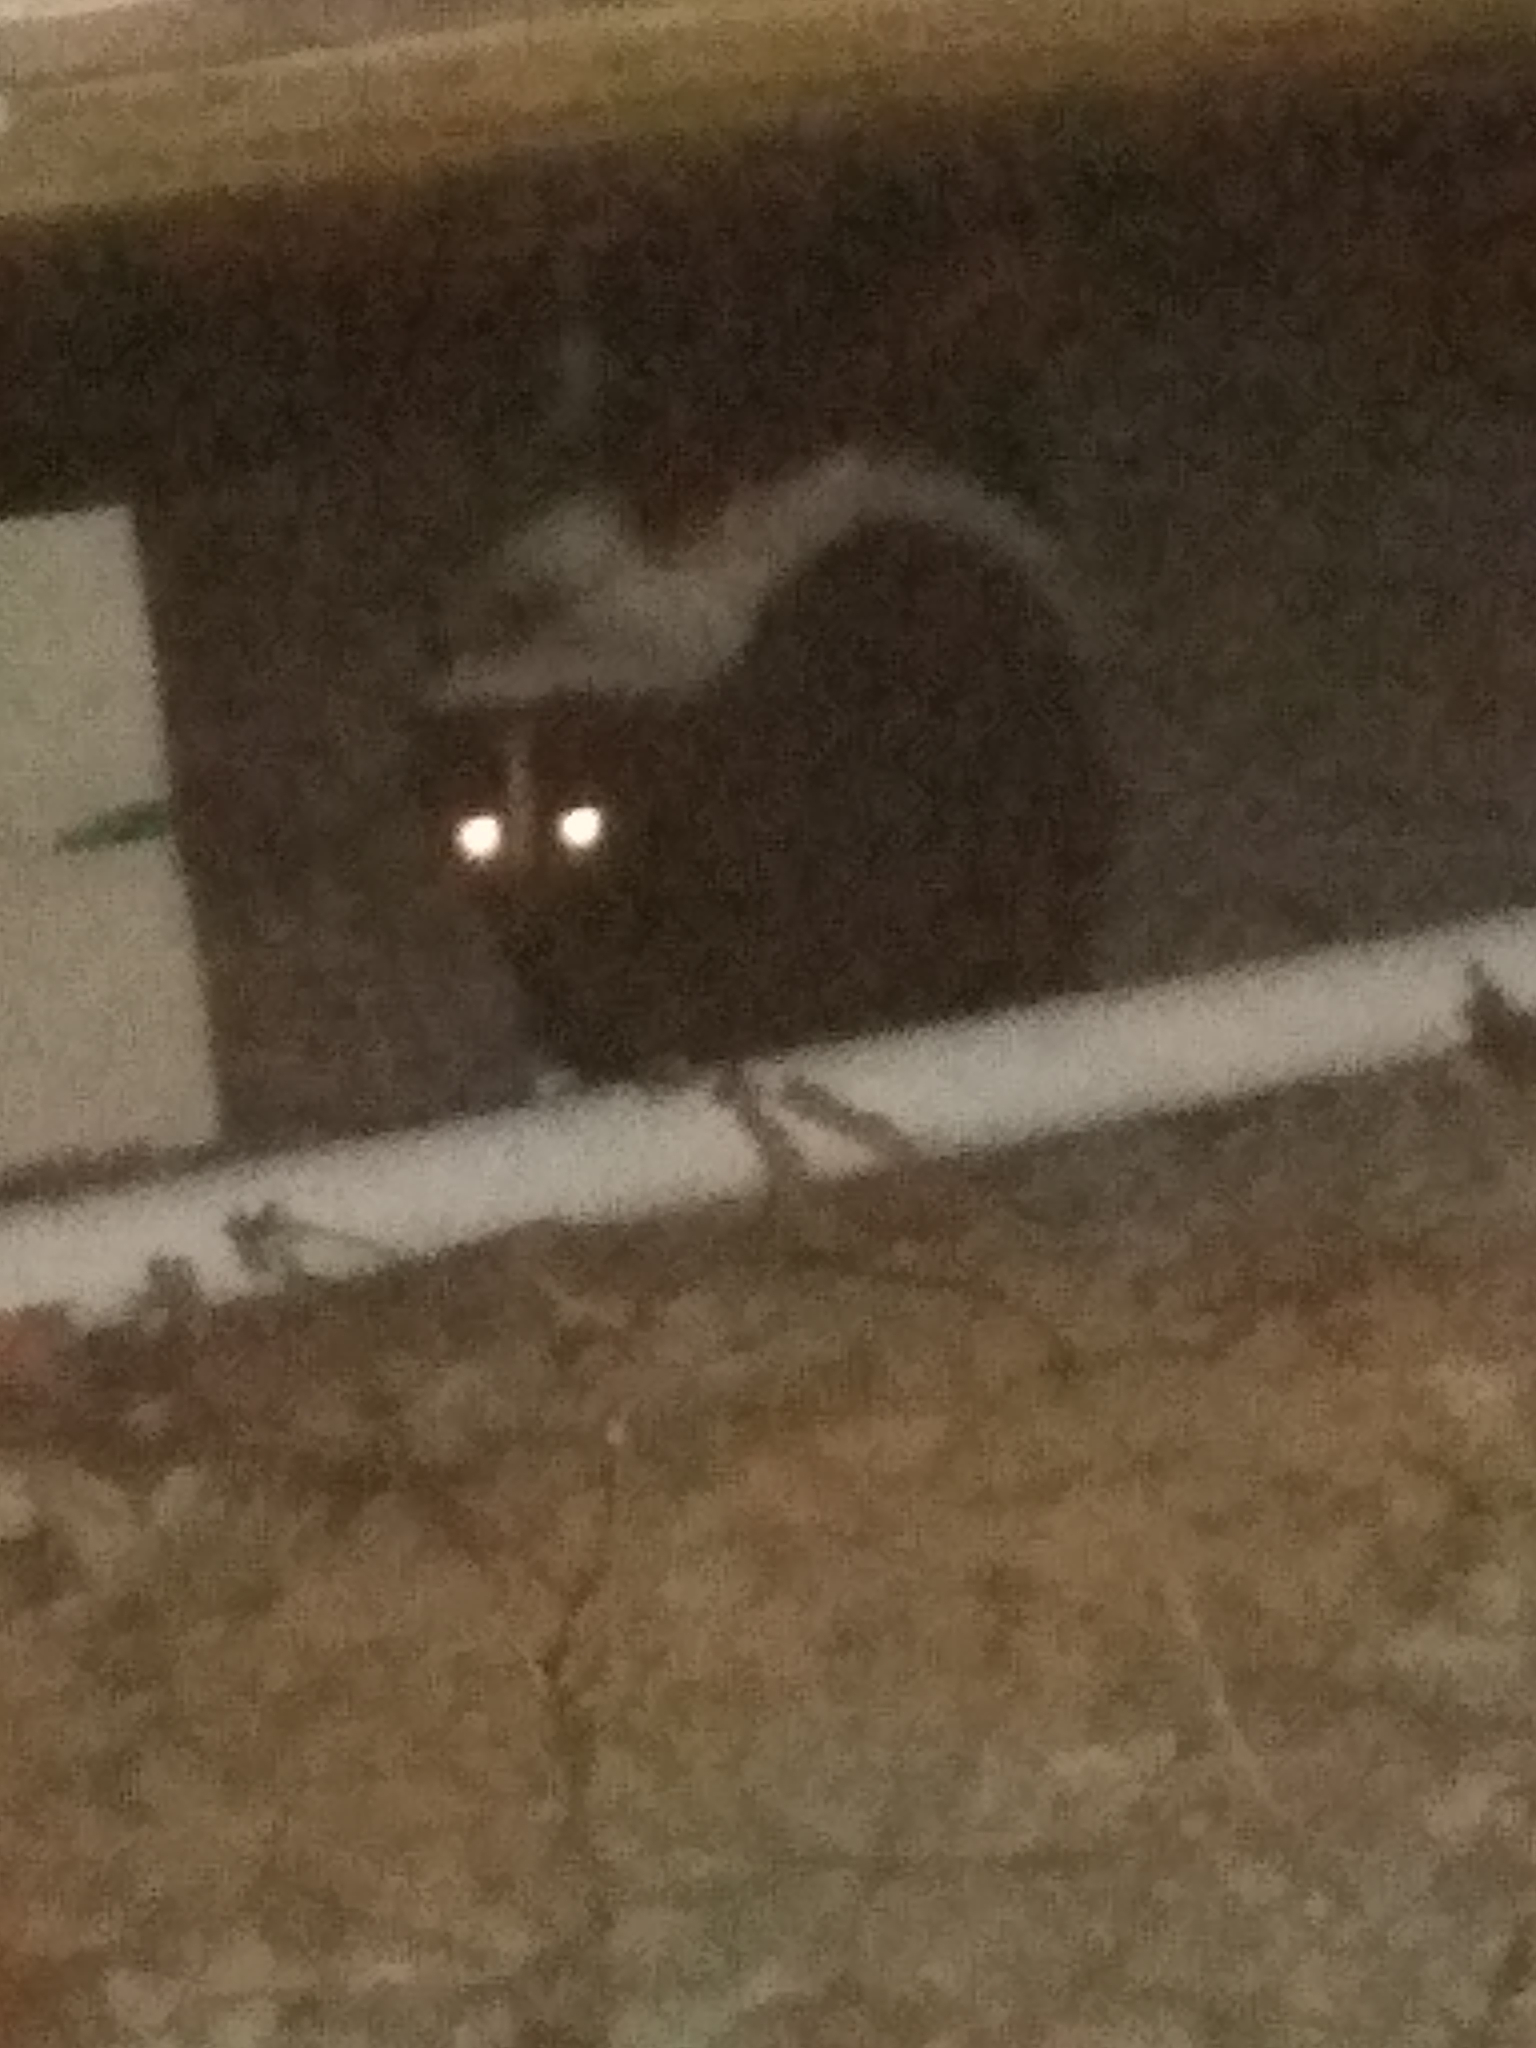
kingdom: Animalia
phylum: Chordata
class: Mammalia
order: Carnivora
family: Mephitidae
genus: Mephitis
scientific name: Mephitis mephitis
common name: Striped skunk
